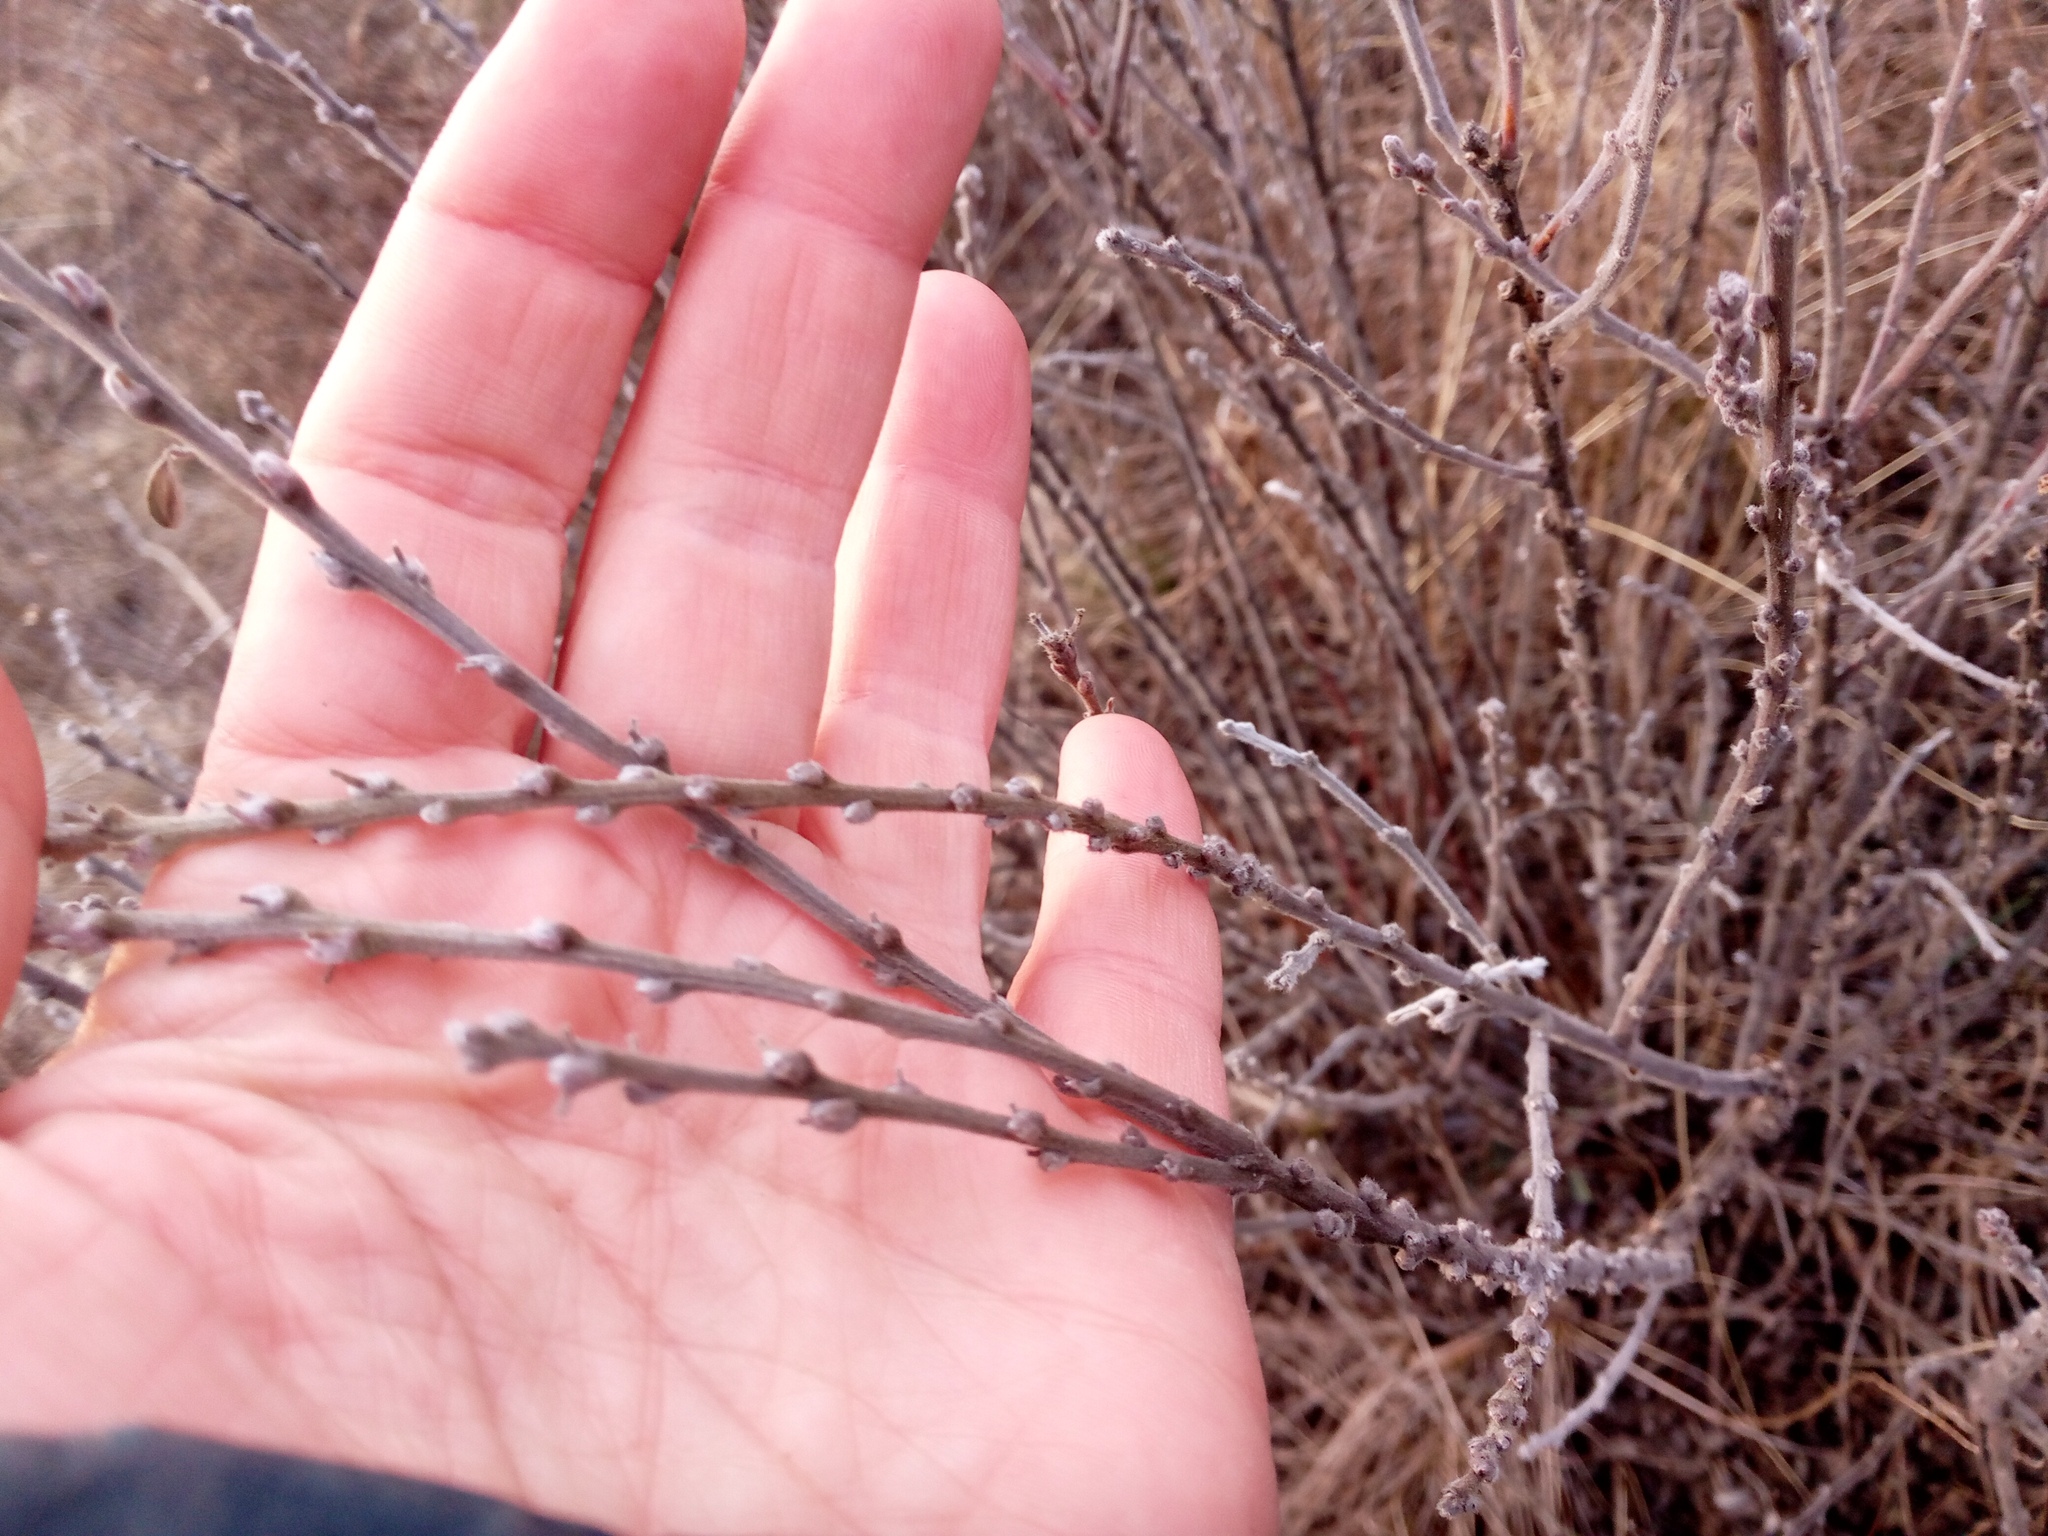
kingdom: Plantae
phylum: Tracheophyta
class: Magnoliopsida
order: Fabales
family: Fabaceae
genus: Chamaecytisus
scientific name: Chamaecytisus lindemannii
